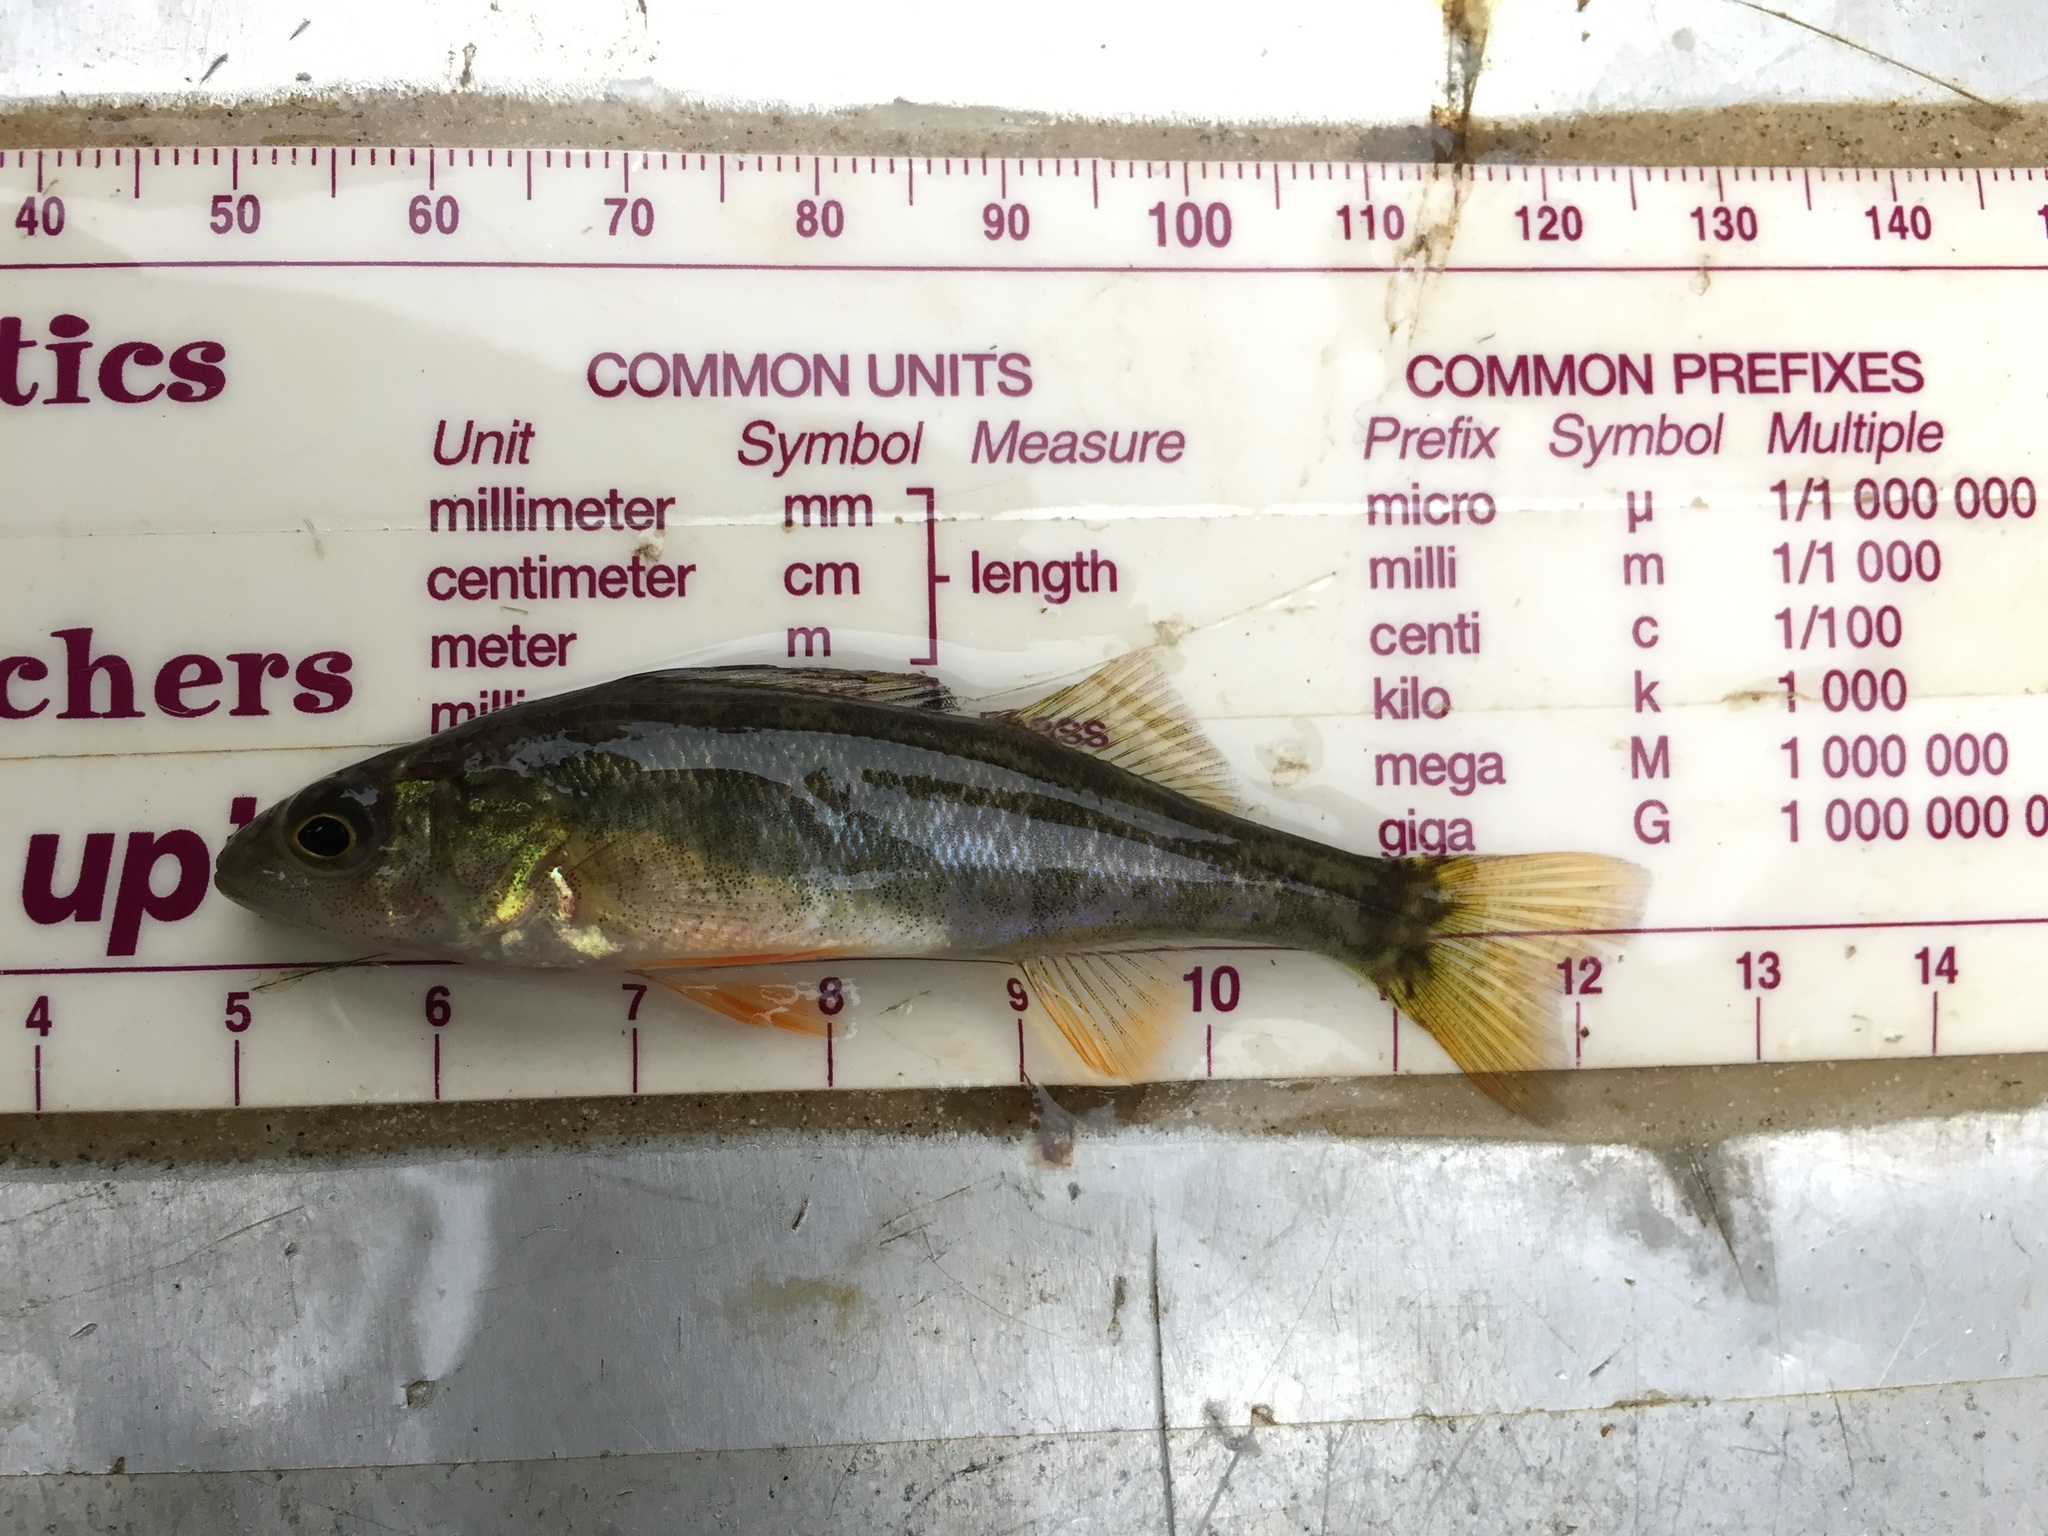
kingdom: Animalia
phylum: Chordata
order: Perciformes
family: Percidae
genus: Perca
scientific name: Perca flavescens
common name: Yellow perch
